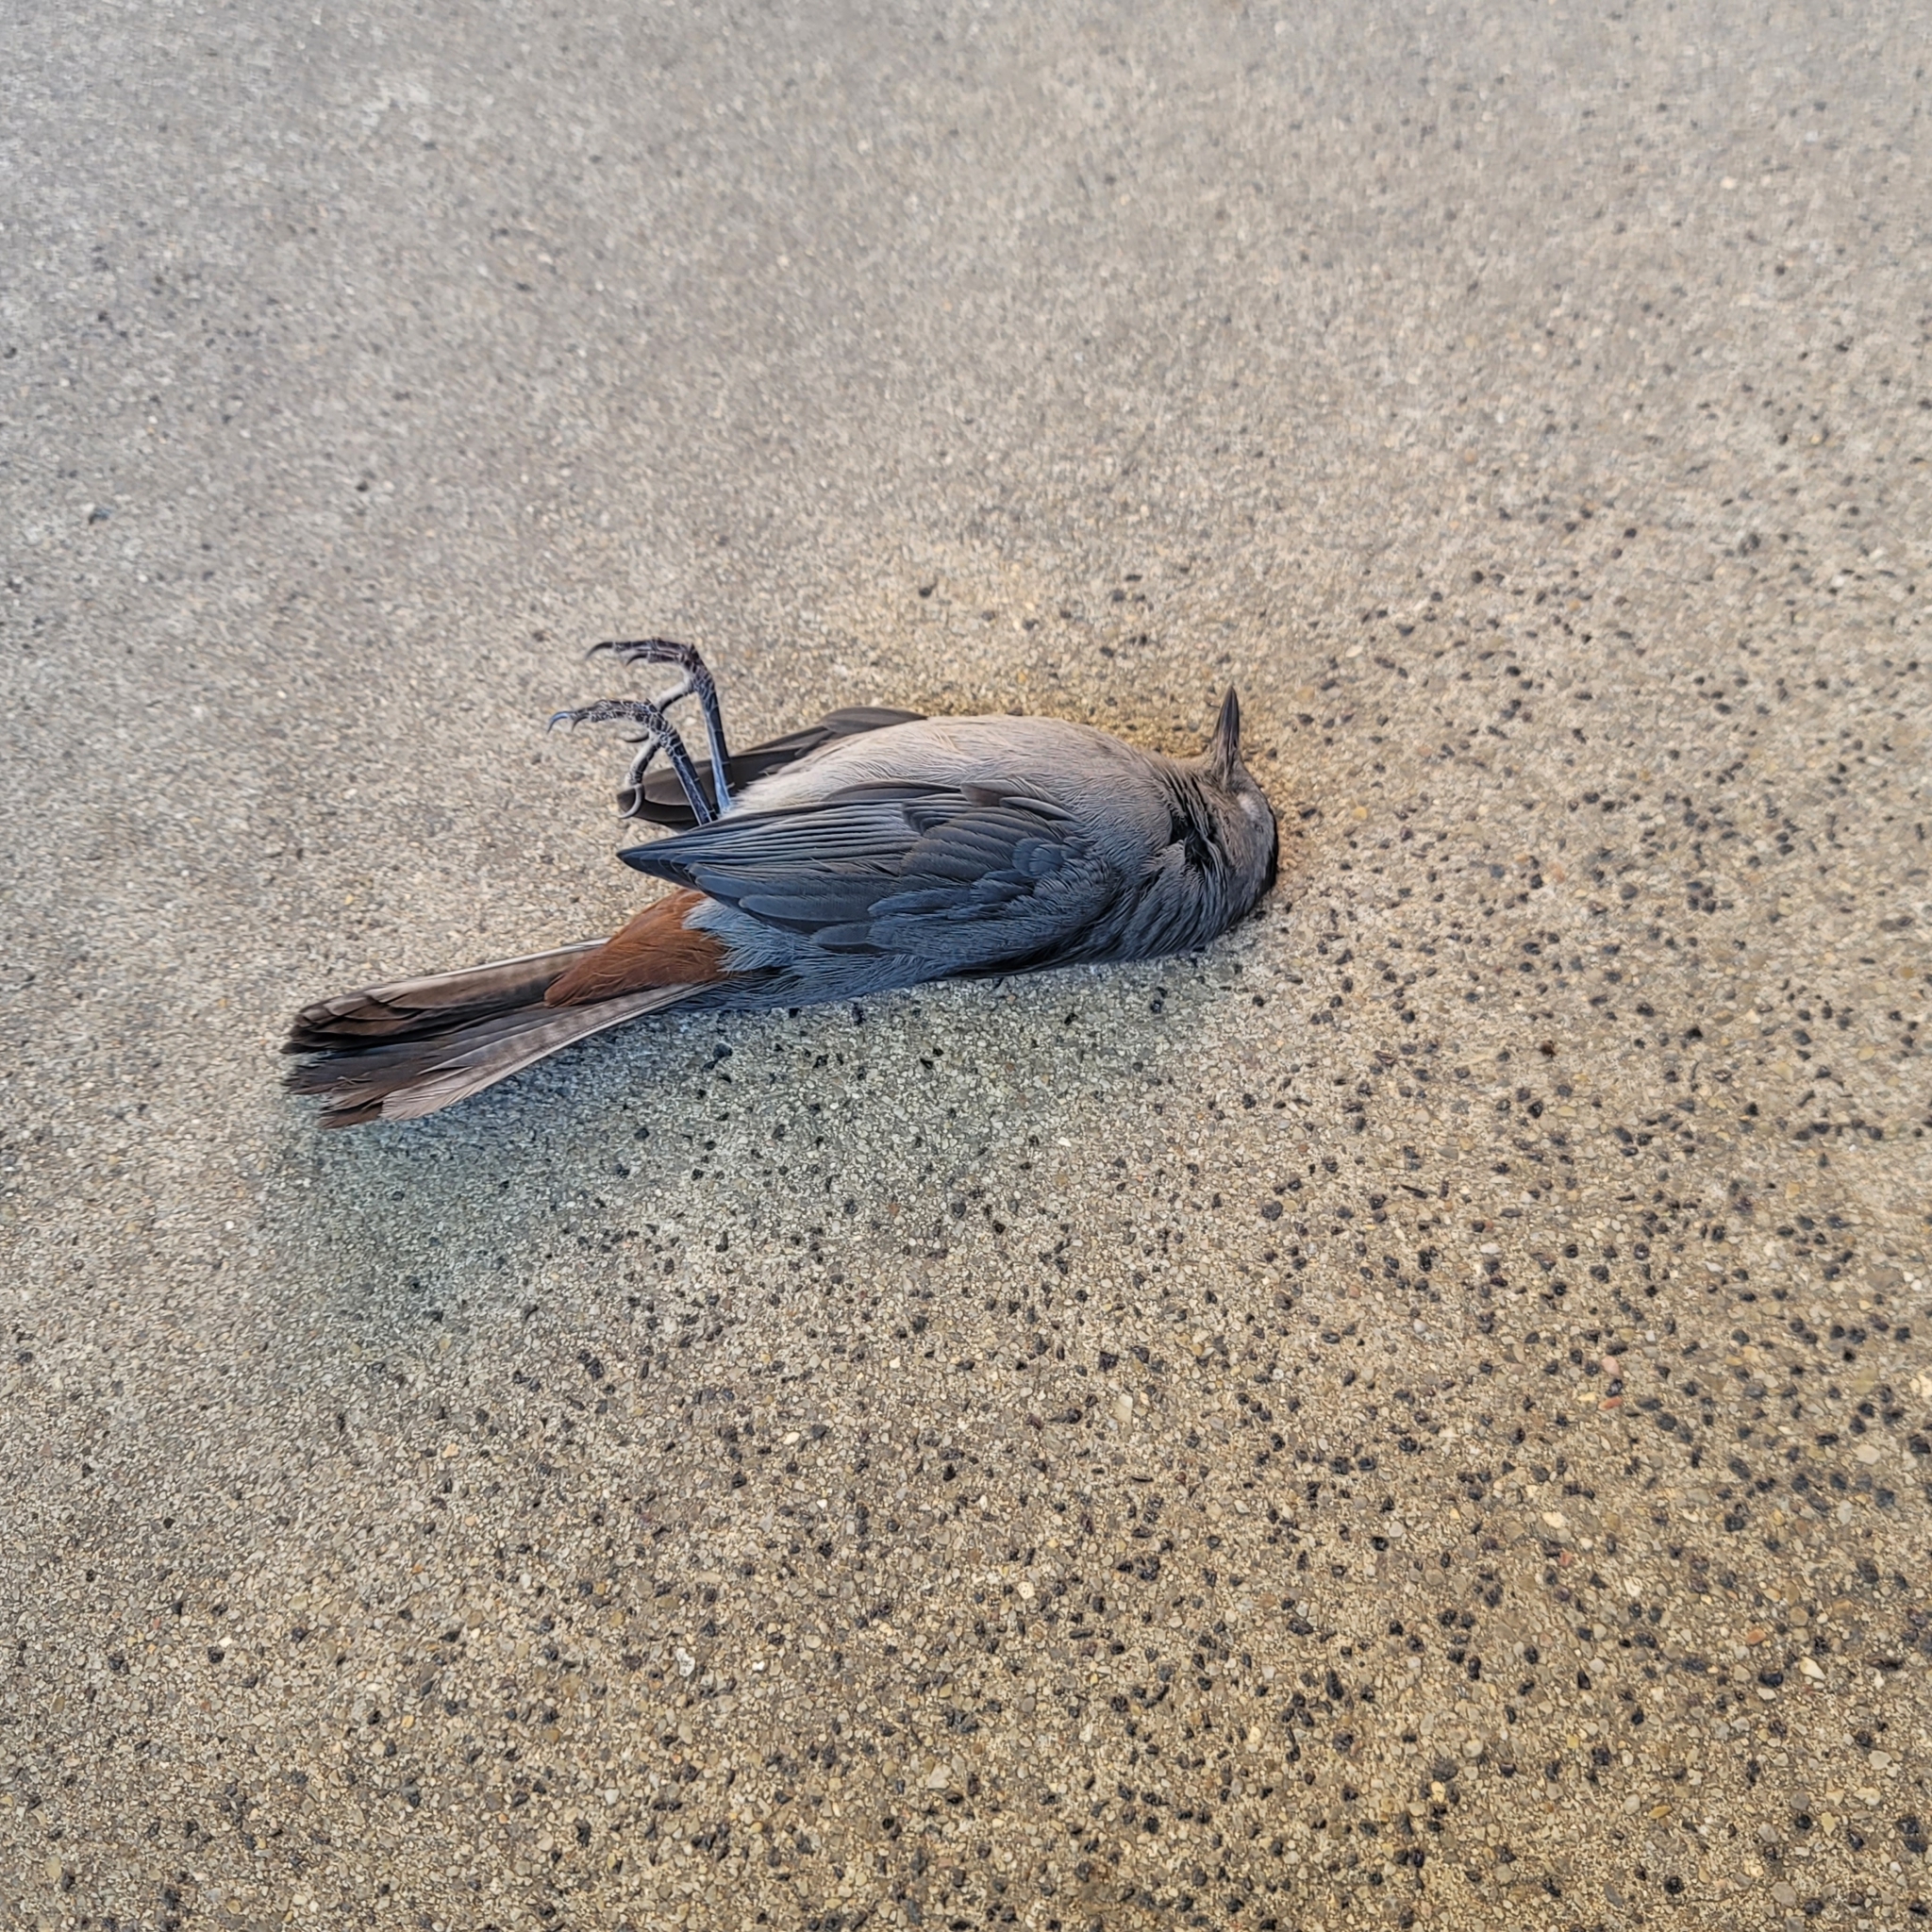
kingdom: Animalia
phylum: Chordata
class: Aves
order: Passeriformes
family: Mimidae
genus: Dumetella
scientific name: Dumetella carolinensis
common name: Gray catbird
